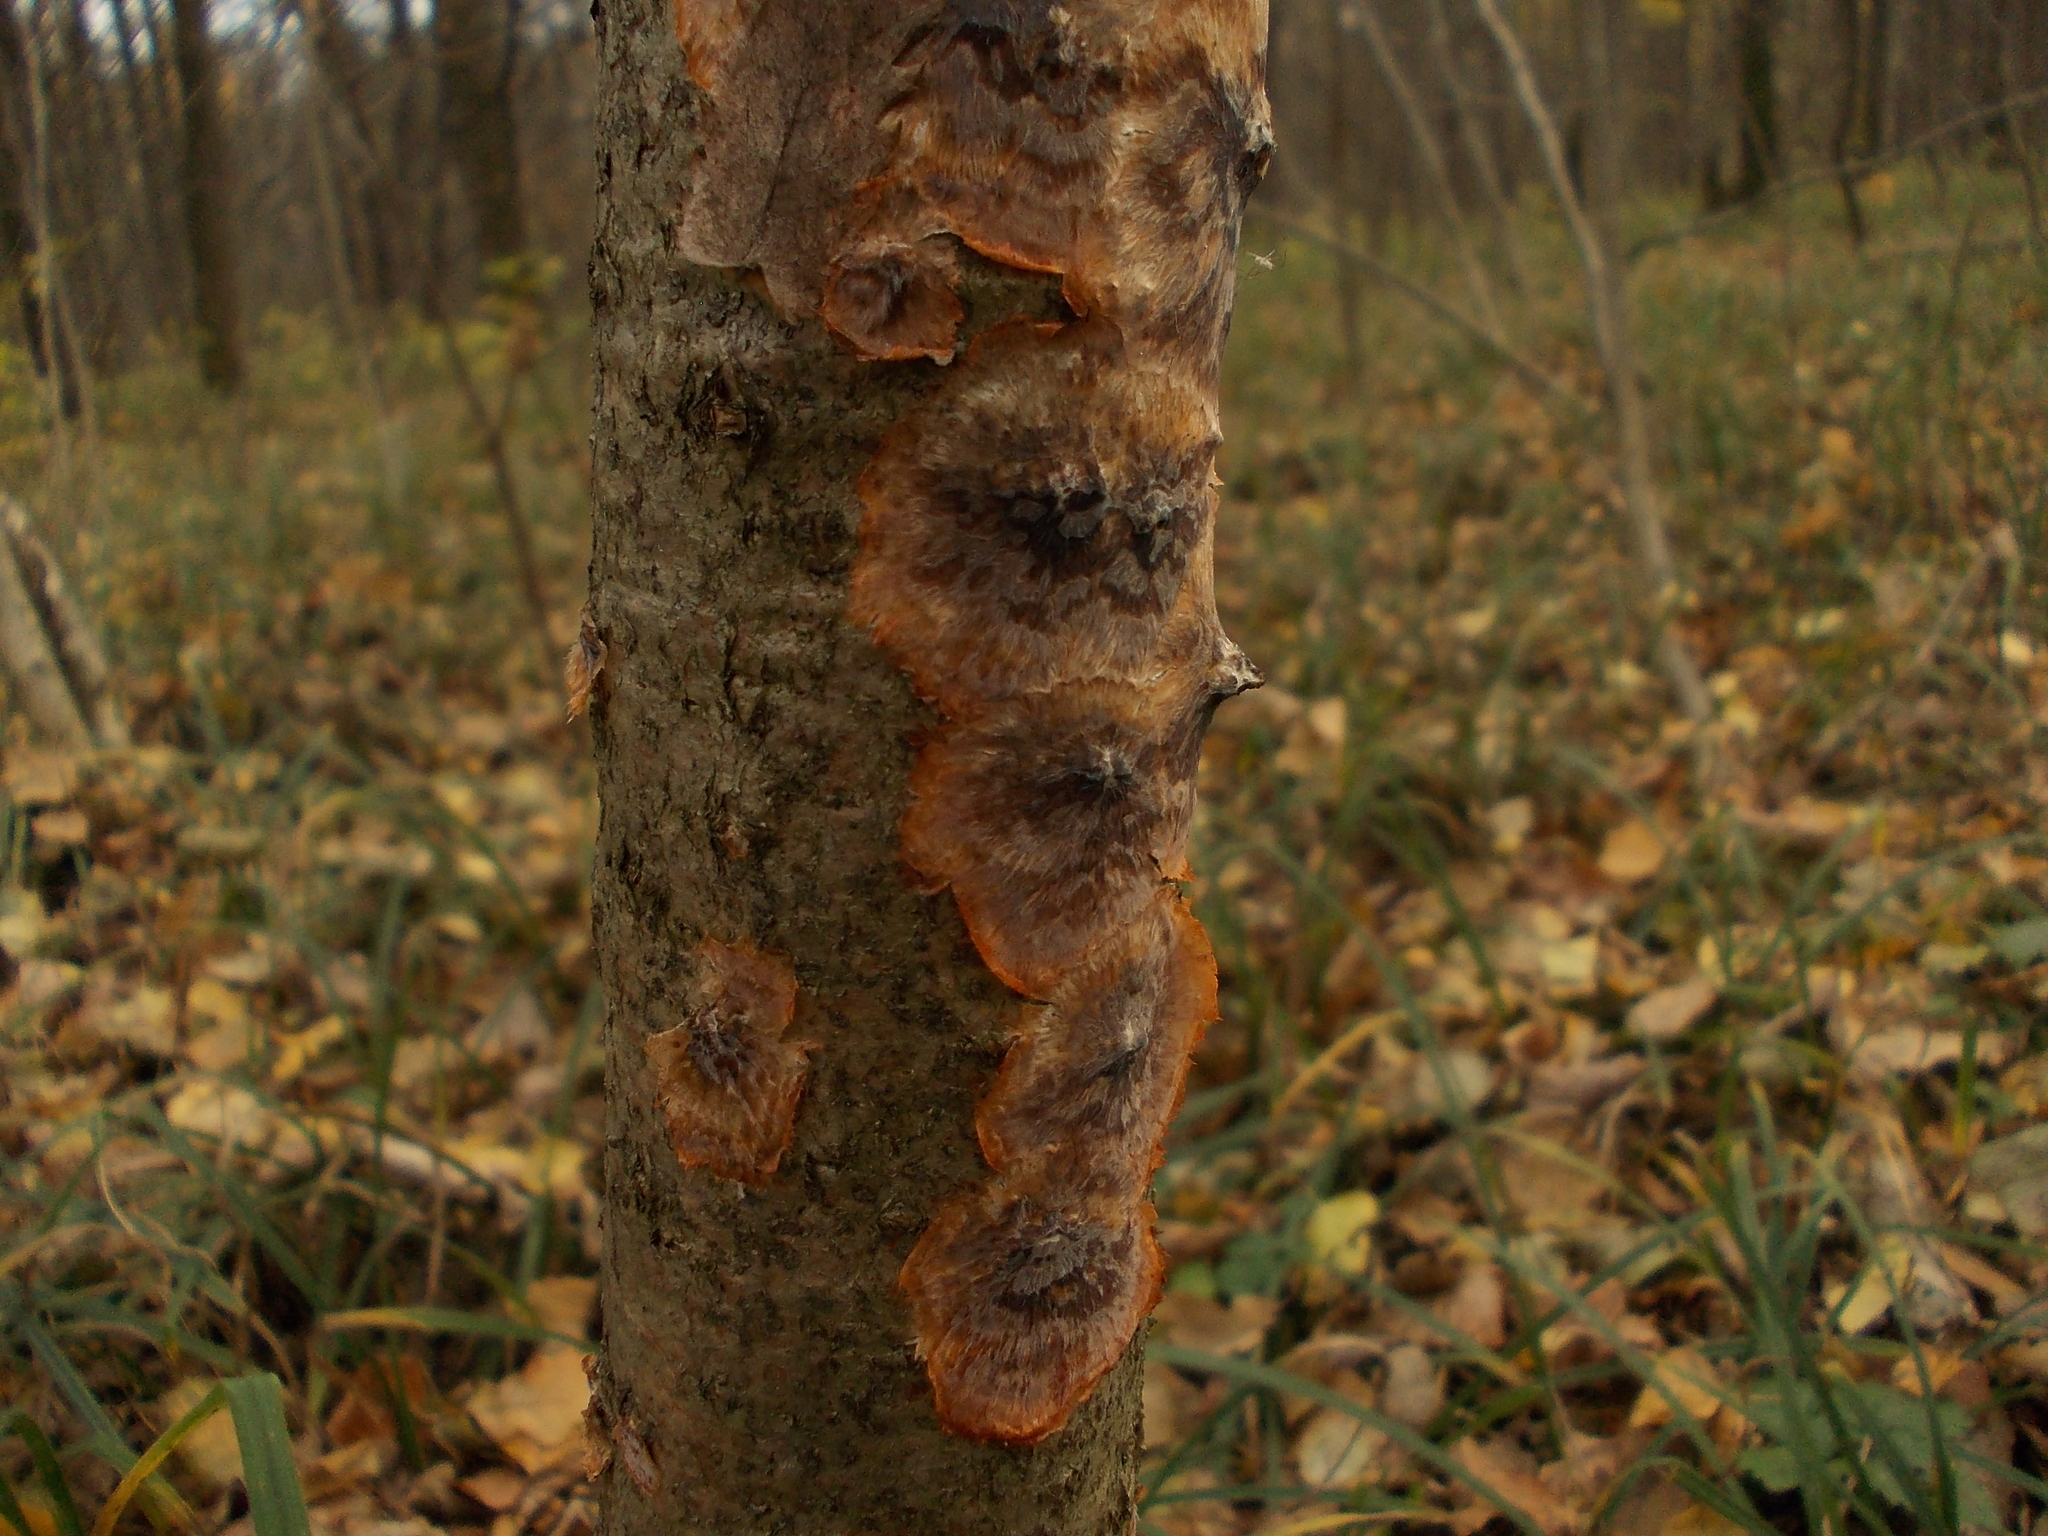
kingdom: Fungi
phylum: Basidiomycota
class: Agaricomycetes
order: Polyporales
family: Meruliaceae
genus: Phlebia
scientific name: Phlebia radiata
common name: Wrinkled crust
